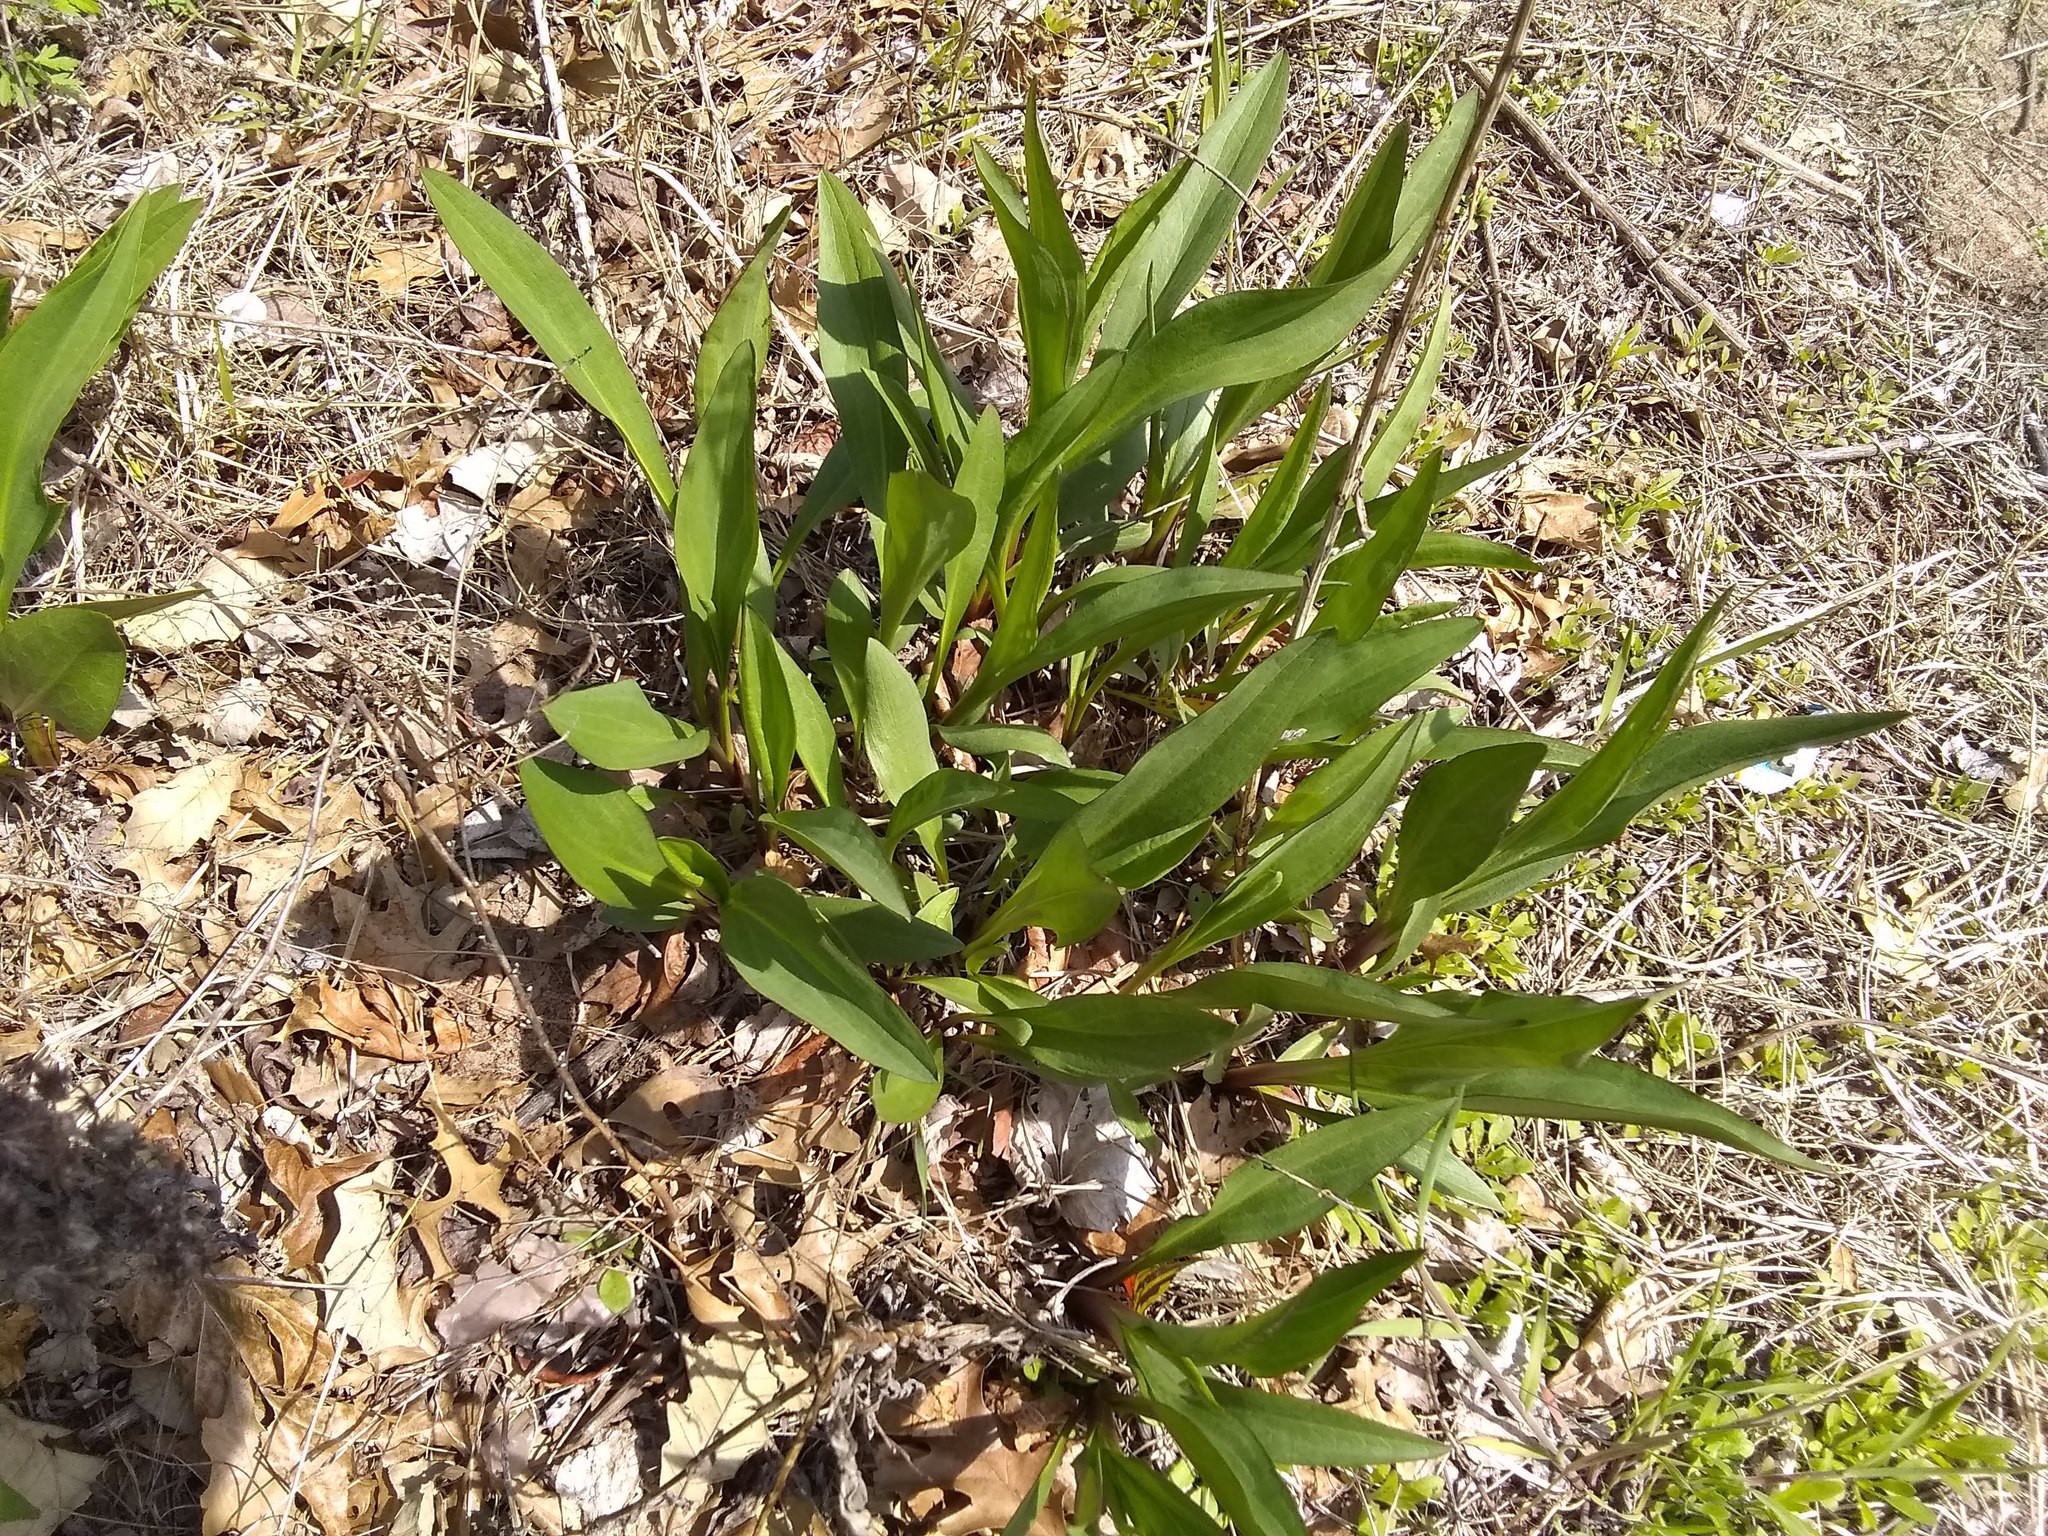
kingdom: Plantae
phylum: Tracheophyta
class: Magnoliopsida
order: Asterales
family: Asteraceae
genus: Solidago
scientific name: Solidago sempervirens
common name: Salt-marsh goldenrod
